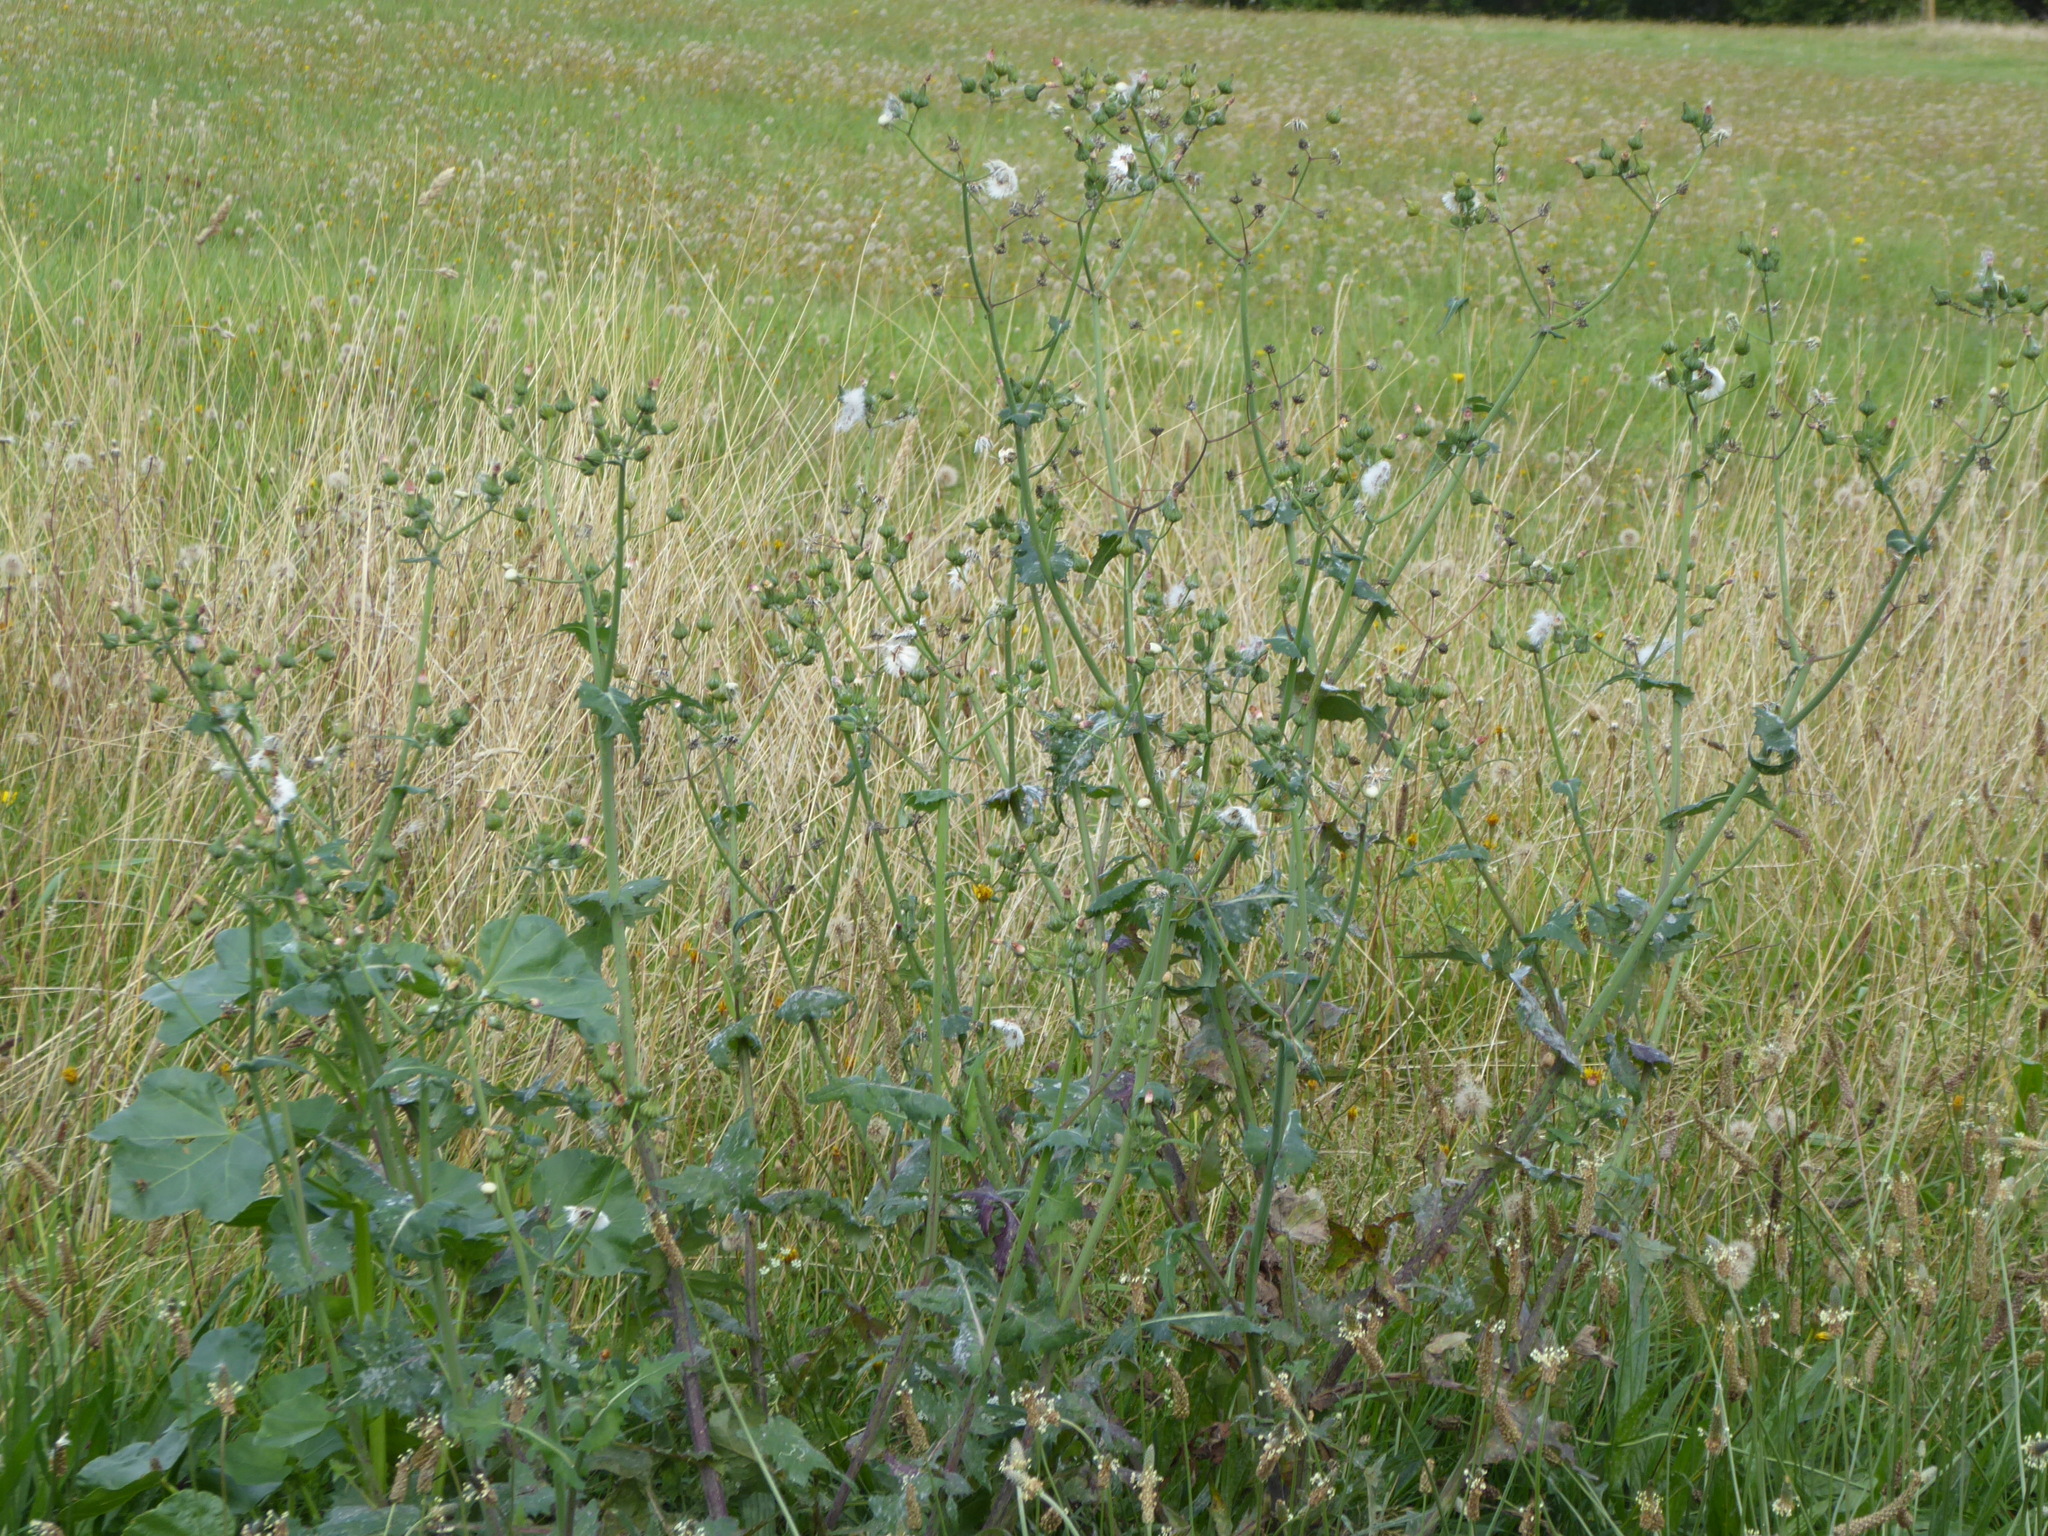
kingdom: Plantae
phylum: Tracheophyta
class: Magnoliopsida
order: Asterales
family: Asteraceae
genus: Sonchus
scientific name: Sonchus oleraceus
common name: Common sowthistle
